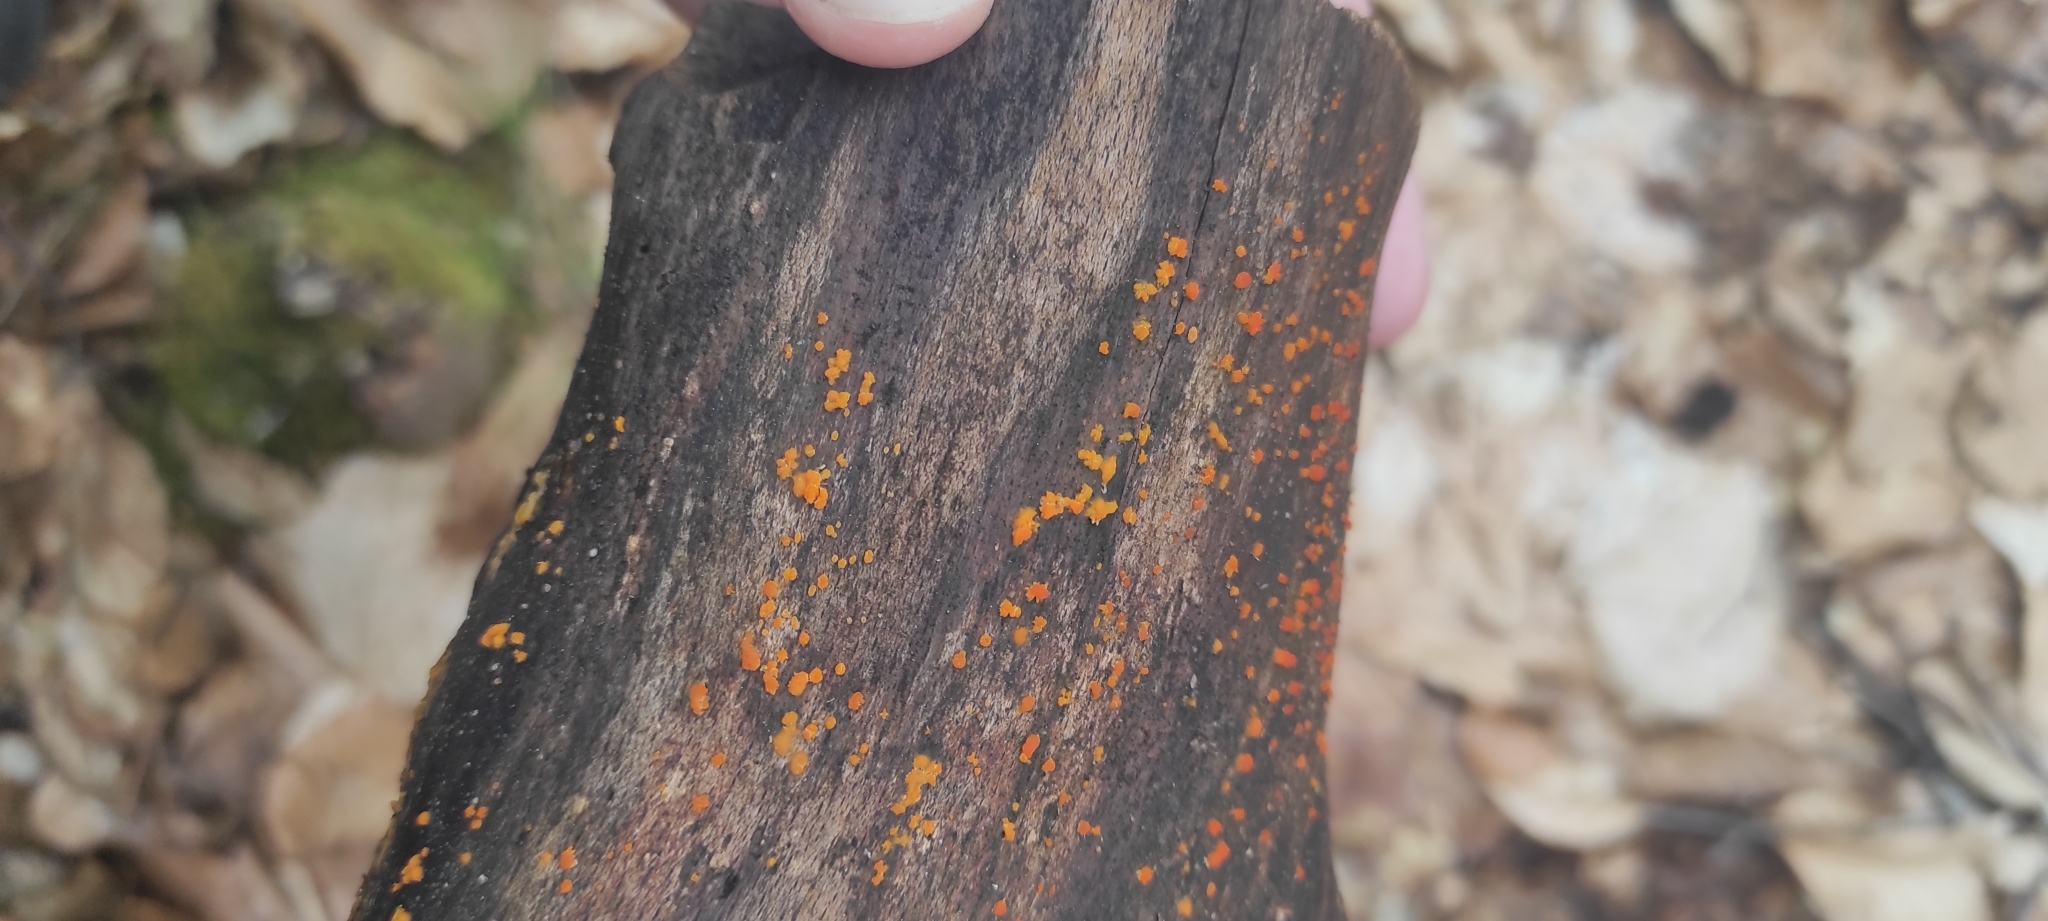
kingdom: Fungi
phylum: Basidiomycota
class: Dacrymycetes
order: Dacrymycetales
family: Dacrymycetaceae
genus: Dacrymyces
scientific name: Dacrymyces stillatus
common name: Common jelly spot
